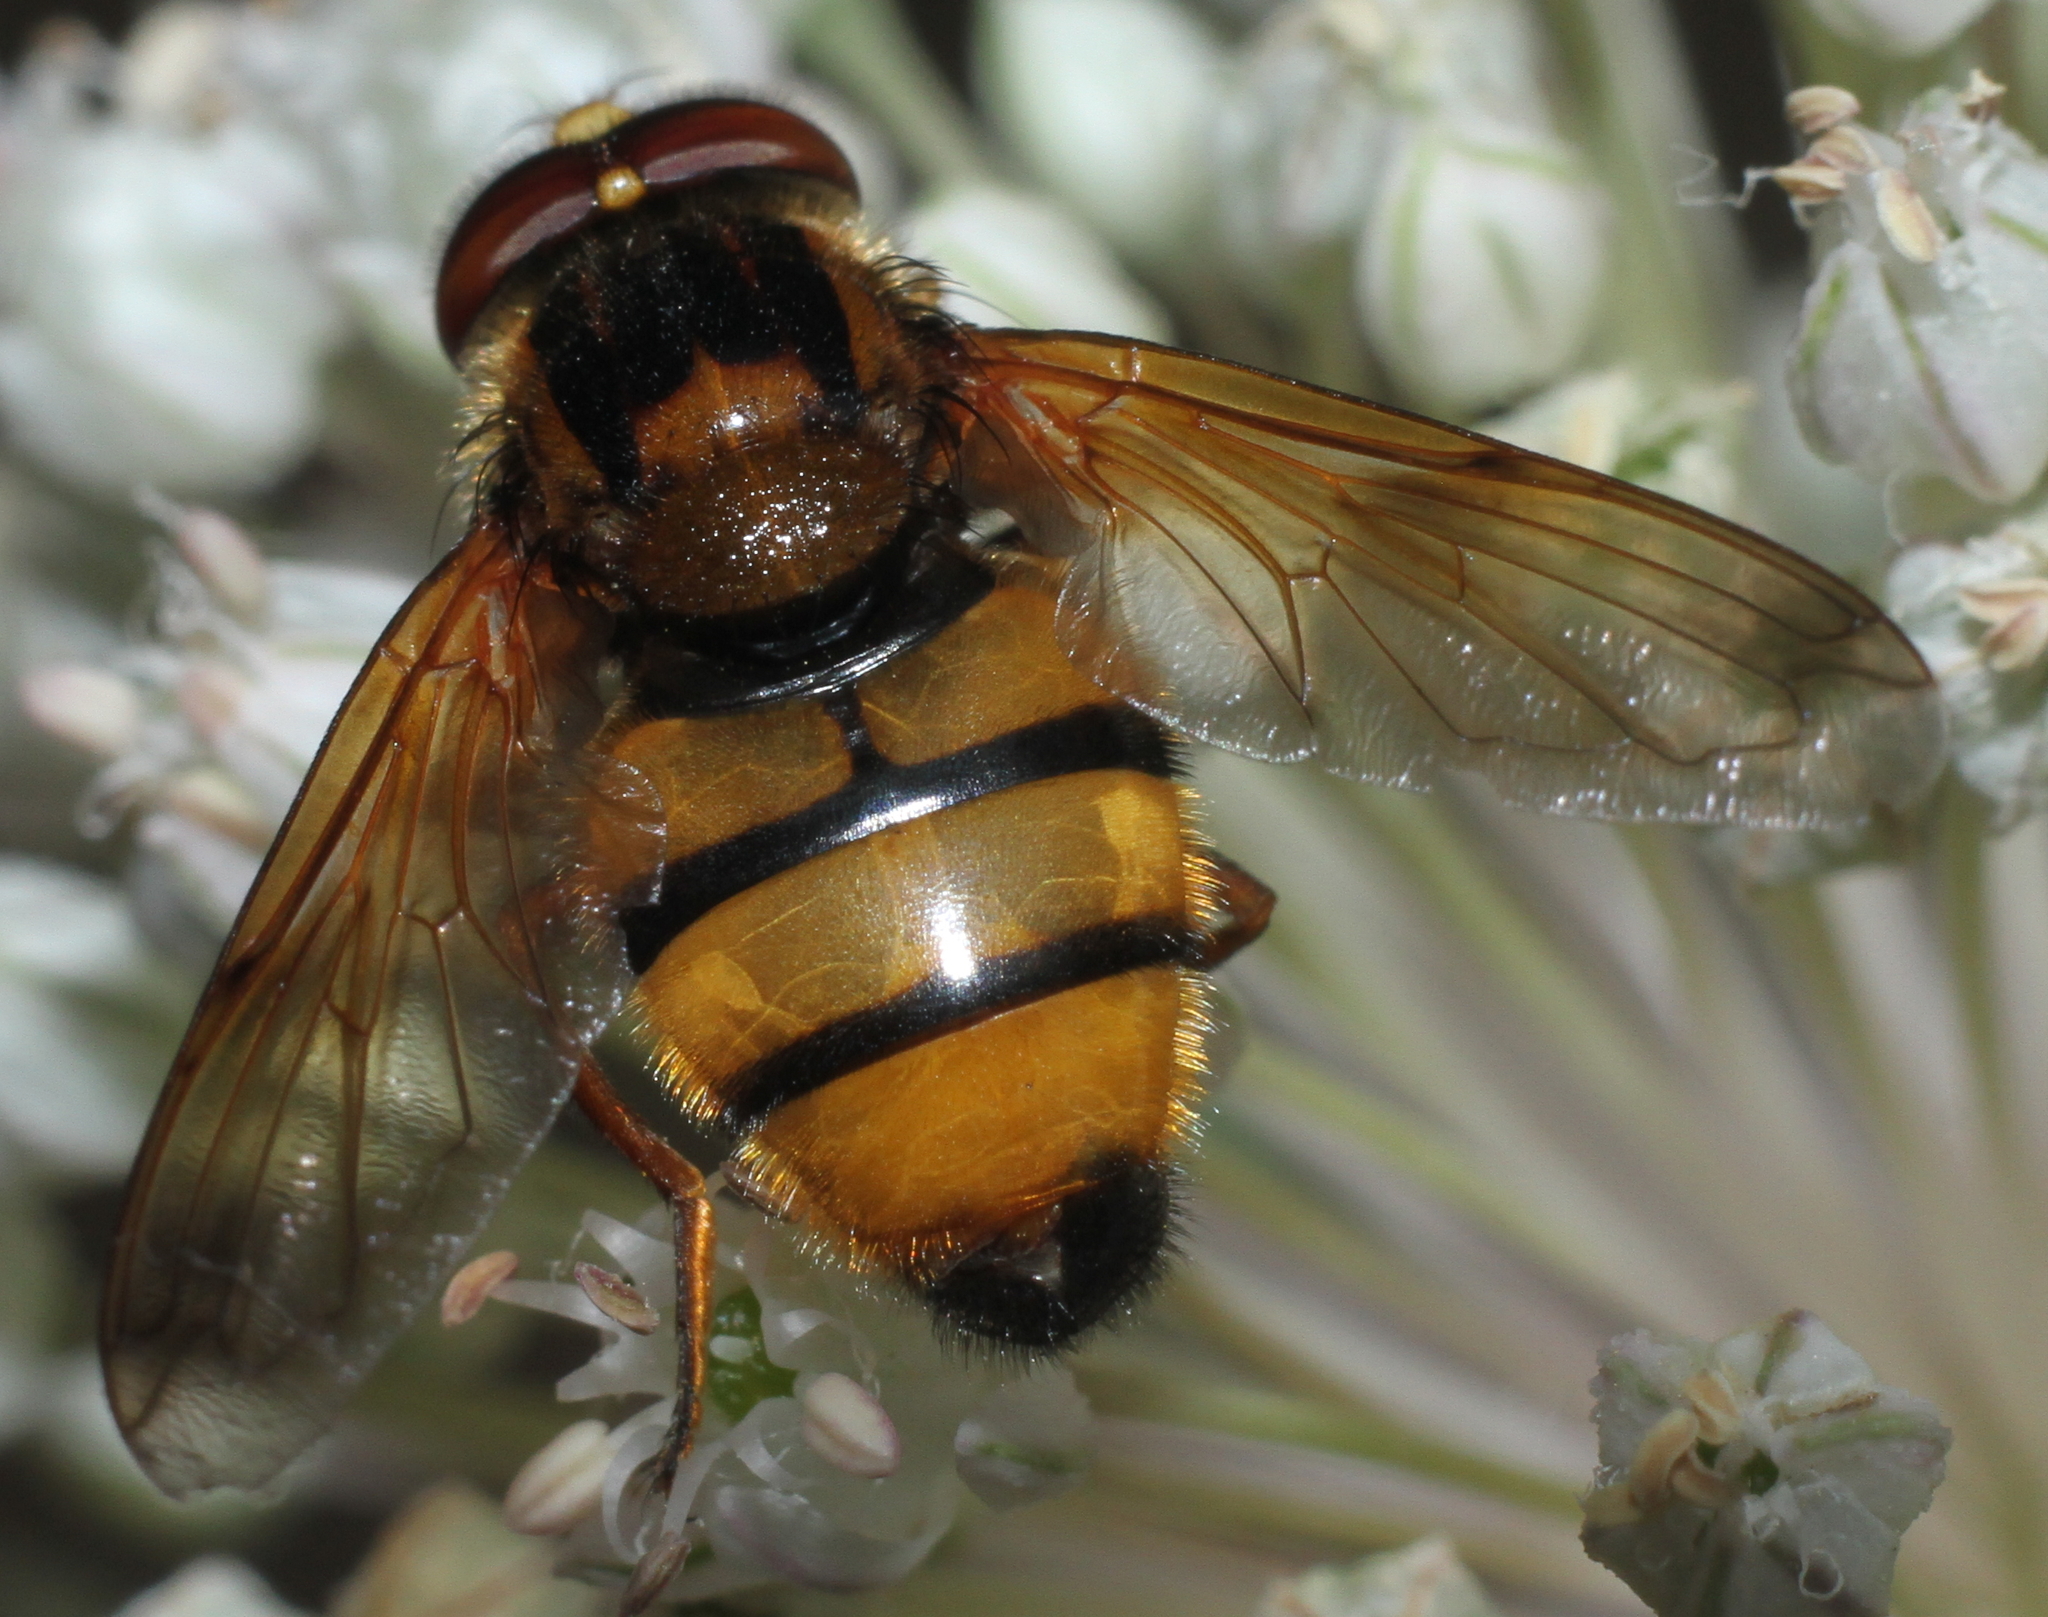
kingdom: Animalia
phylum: Arthropoda
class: Insecta
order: Diptera
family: Syrphidae
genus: Volucella
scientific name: Volucella inanis
